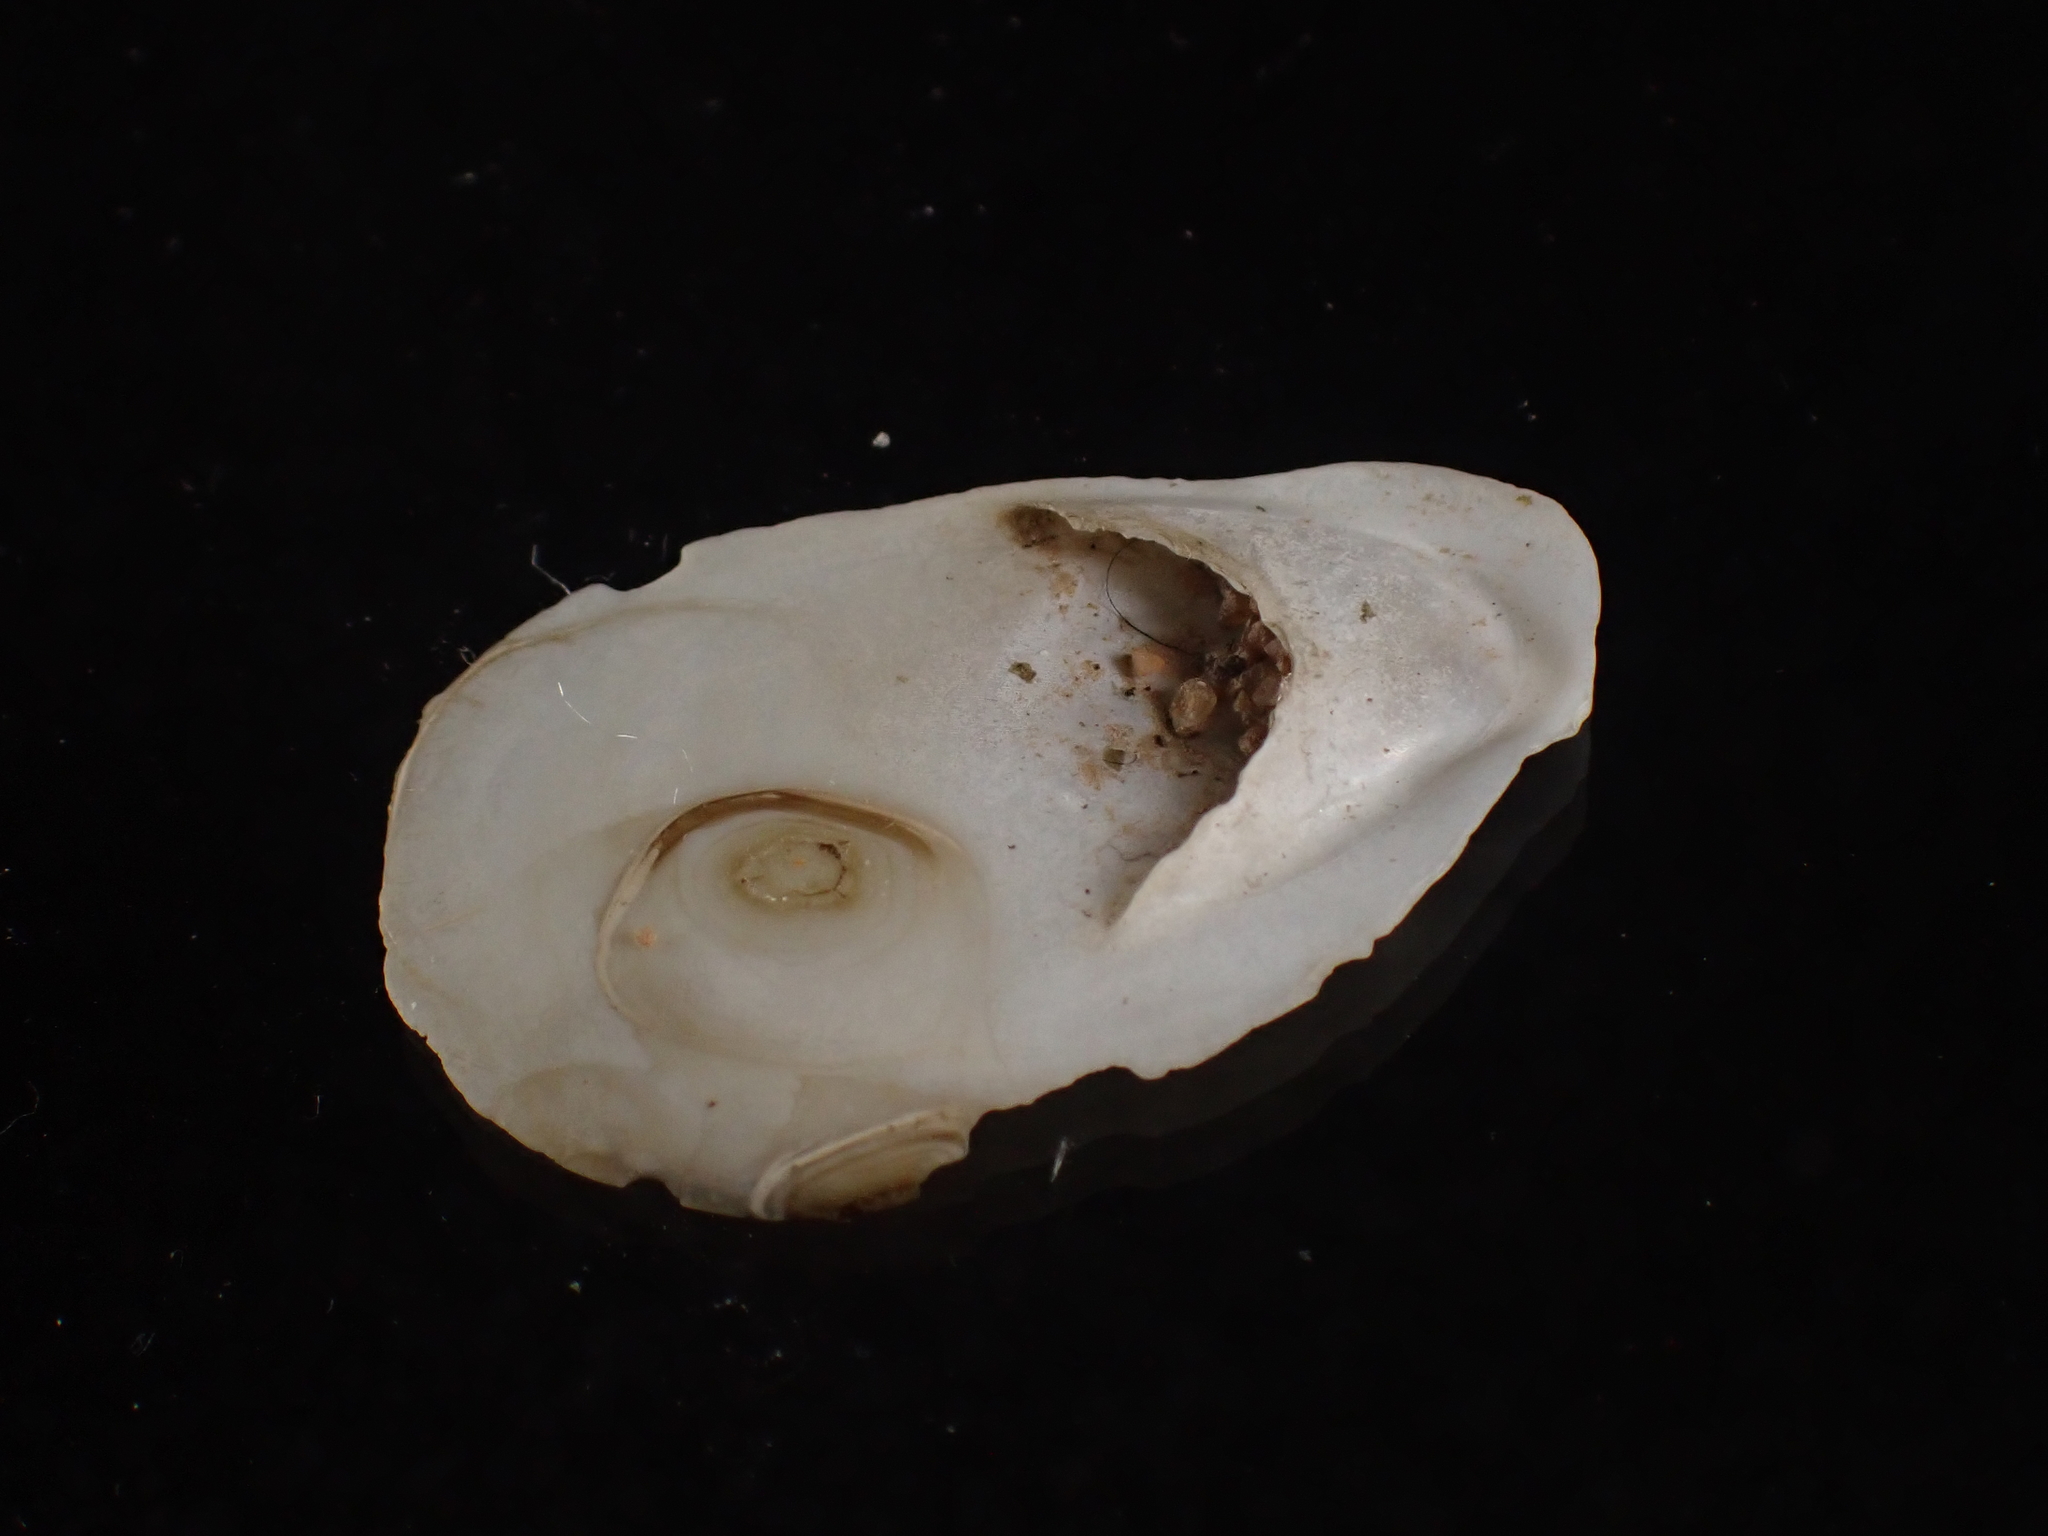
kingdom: Animalia
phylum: Mollusca
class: Gastropoda
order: Littorinimorpha
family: Calyptraeidae
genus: Crepidula
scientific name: Crepidula plana
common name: Eastern white slippersnail
